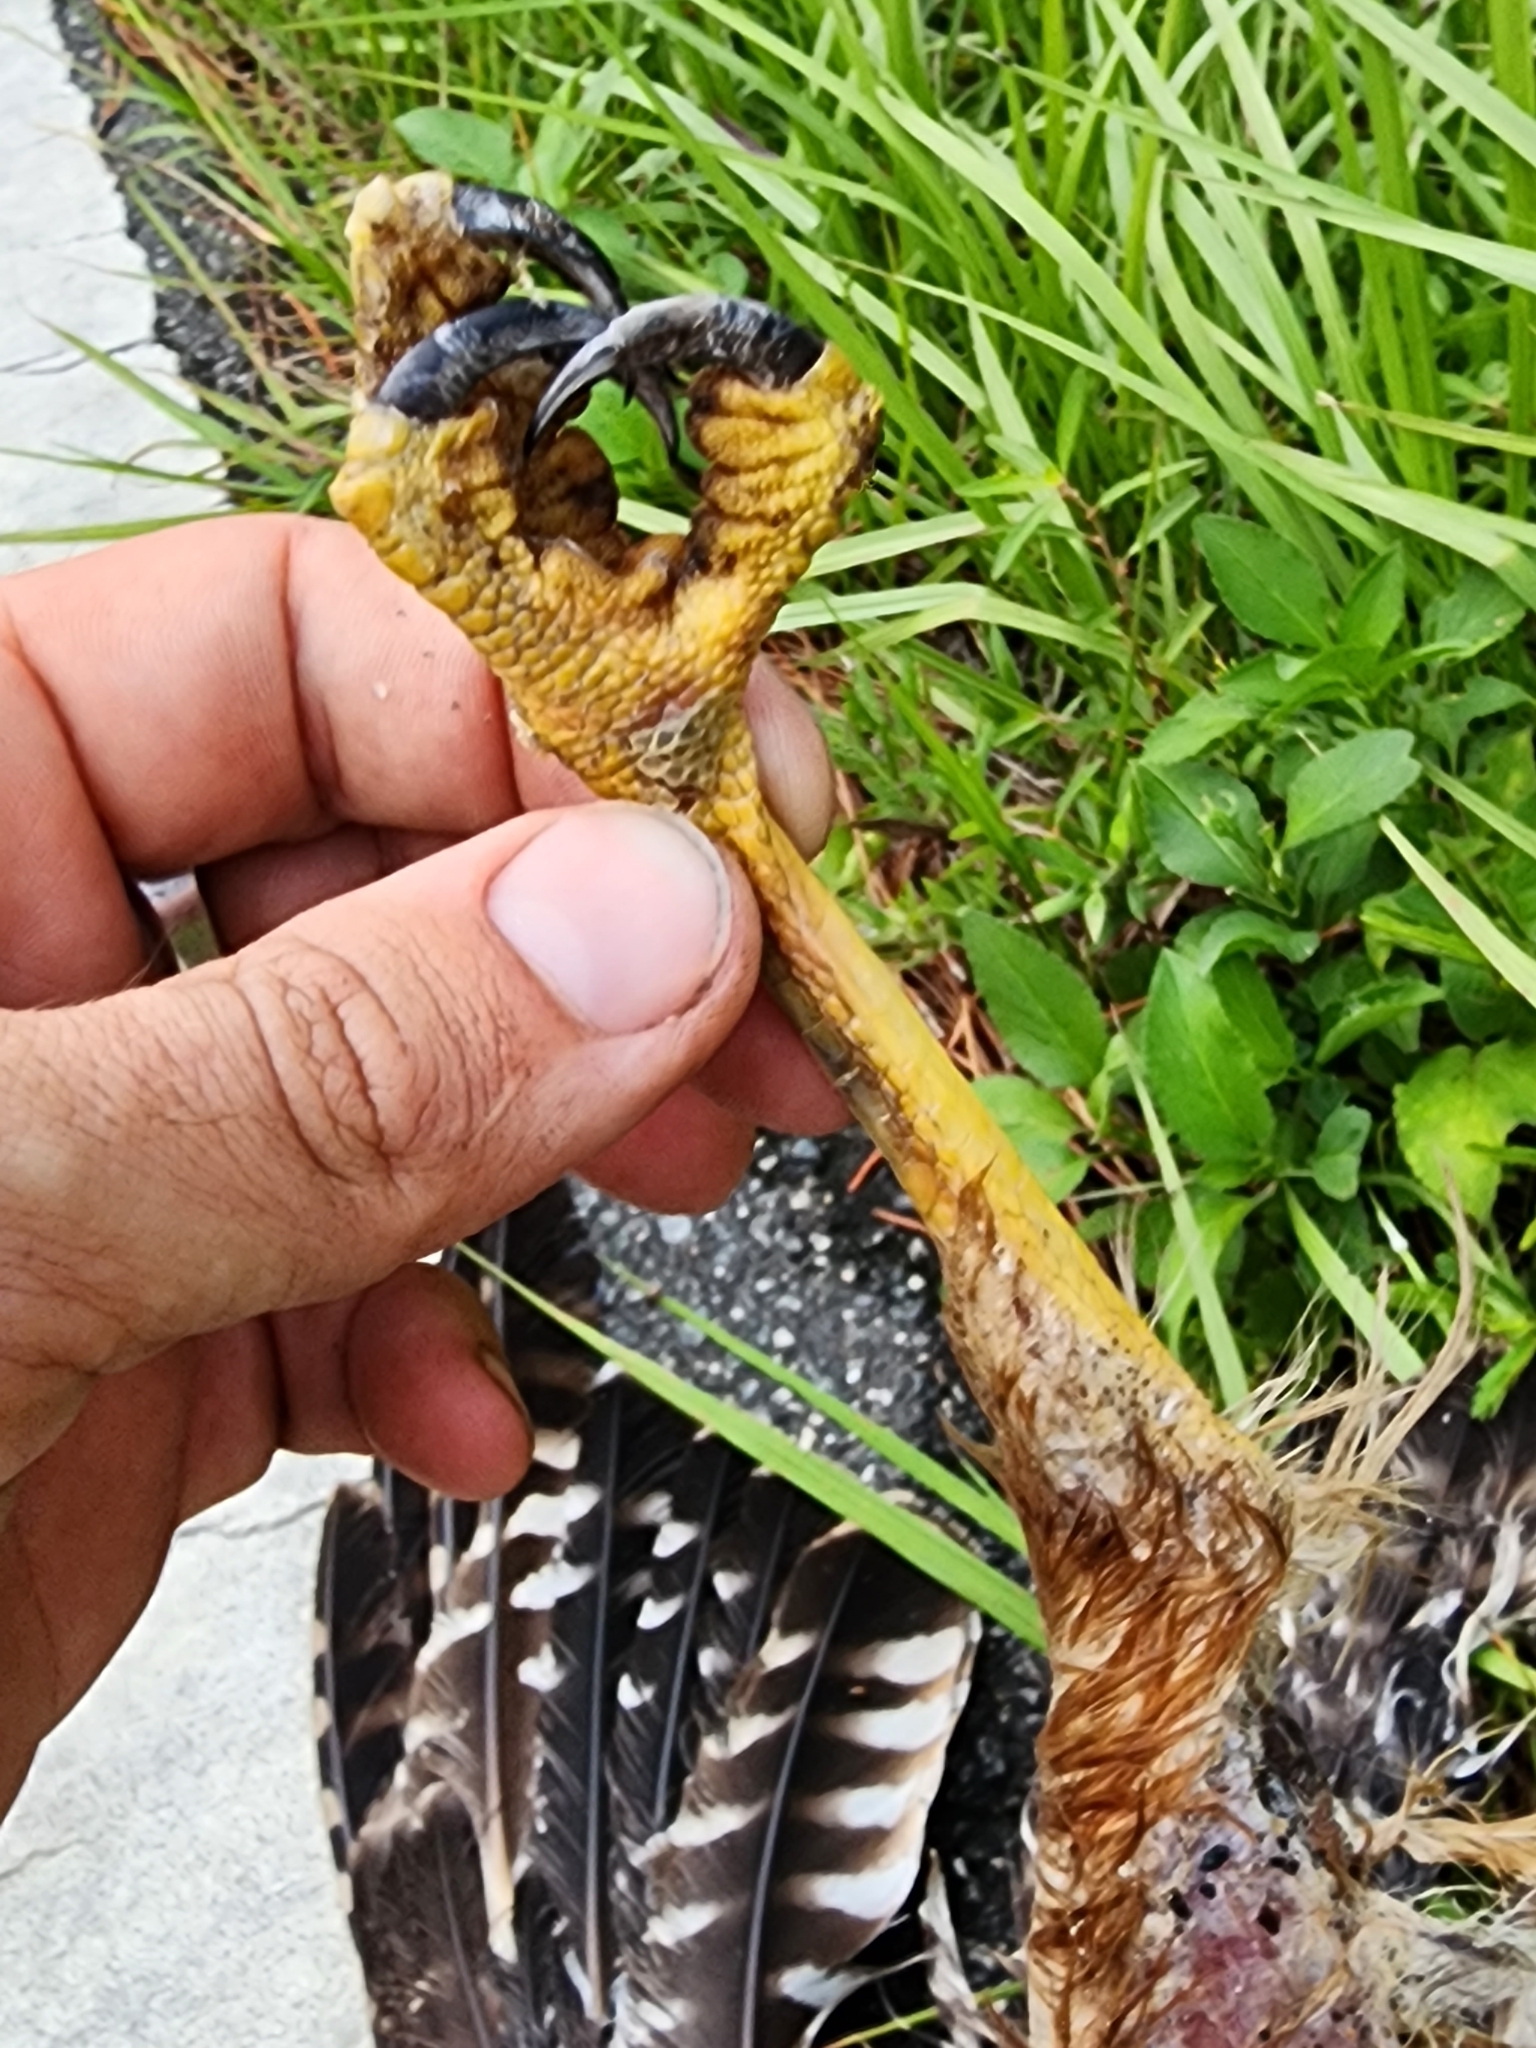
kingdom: Animalia
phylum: Arthropoda
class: Insecta
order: Coleoptera
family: Staphylinidae
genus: Nicrophorus
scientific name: Nicrophorus carolinus
